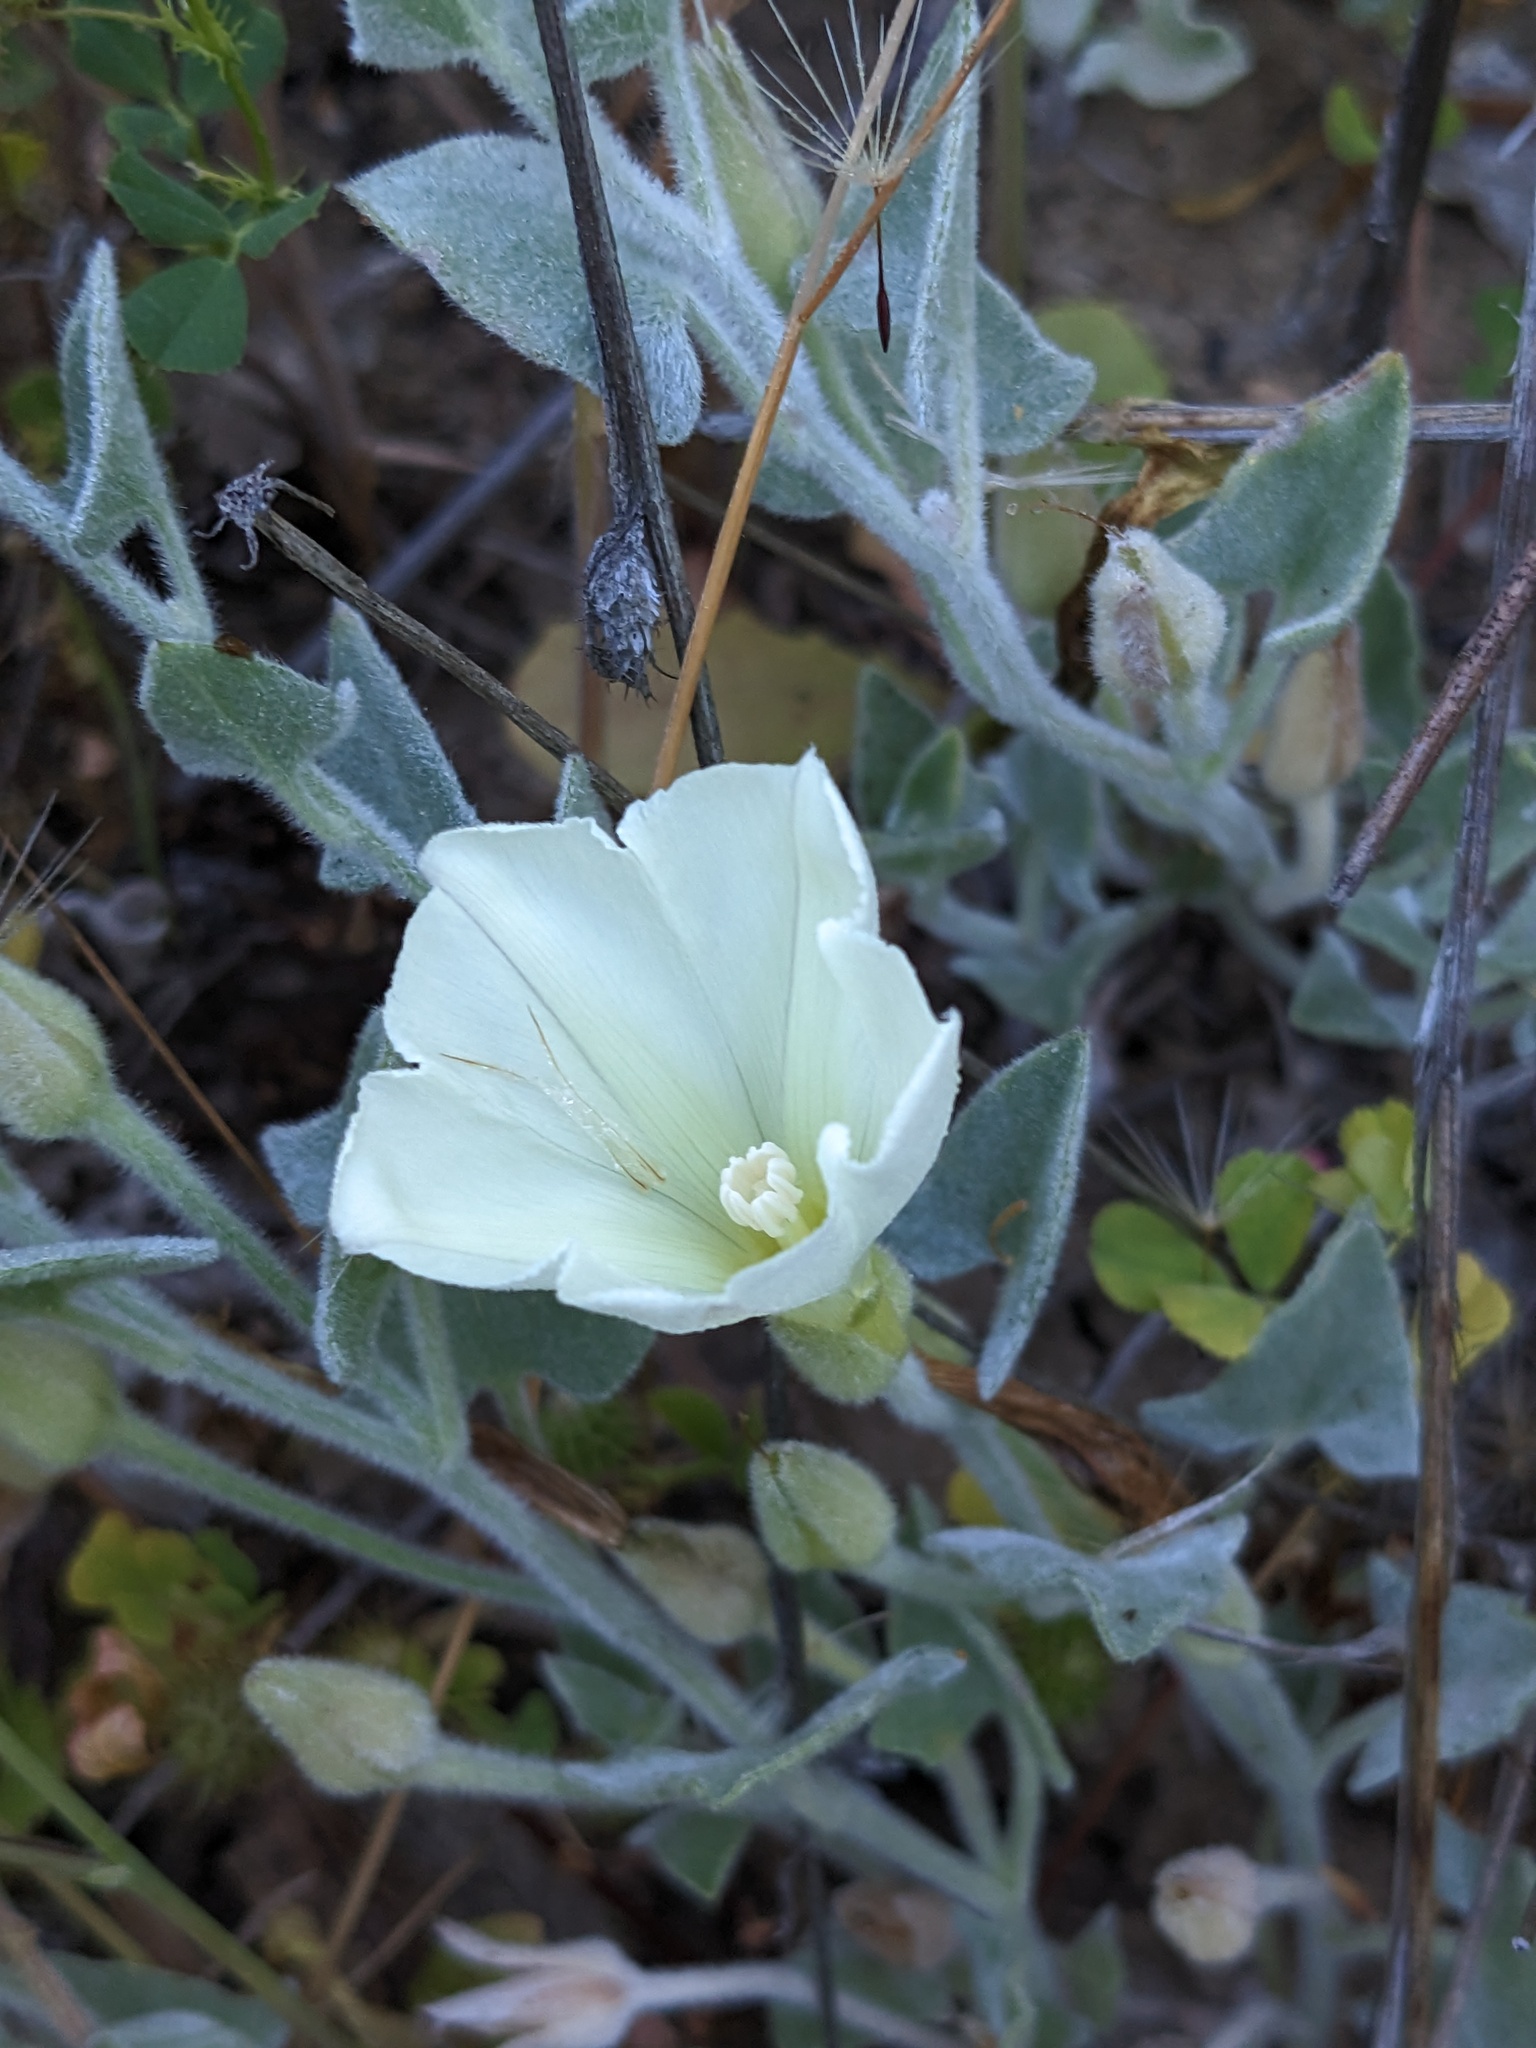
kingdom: Plantae
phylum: Tracheophyta
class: Magnoliopsida
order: Solanales
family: Convolvulaceae
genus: Calystegia
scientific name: Calystegia malacophylla
